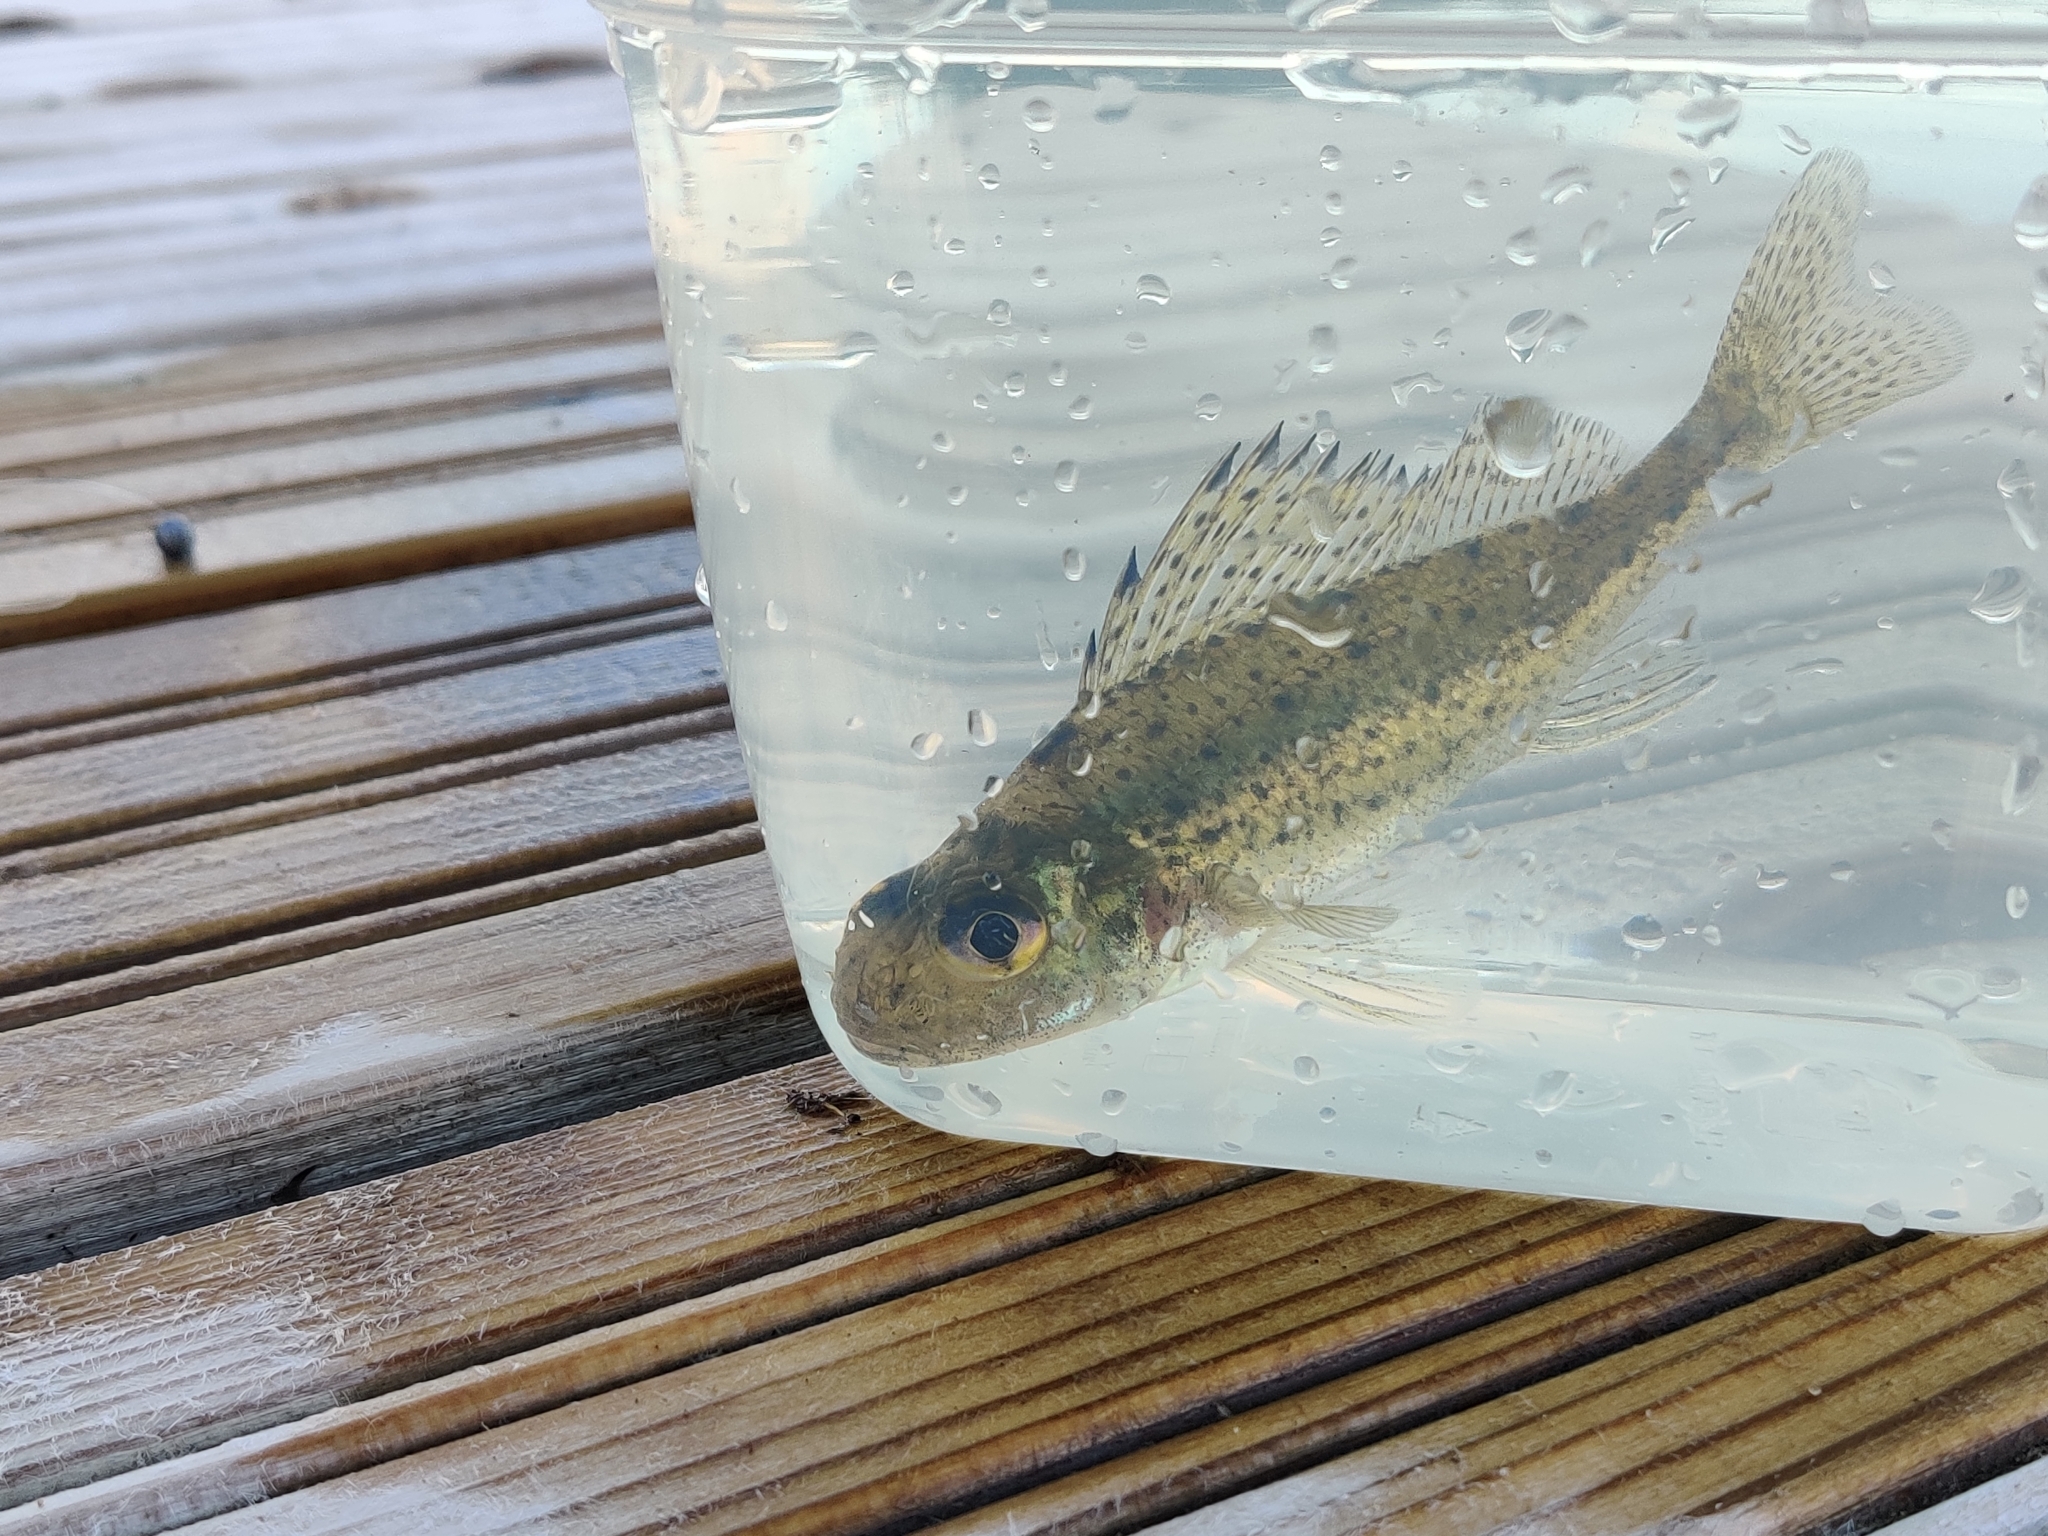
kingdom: Animalia
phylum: Chordata
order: Perciformes
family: Percidae
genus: Gymnocephalus
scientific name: Gymnocephalus cernua
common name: Ruffe
